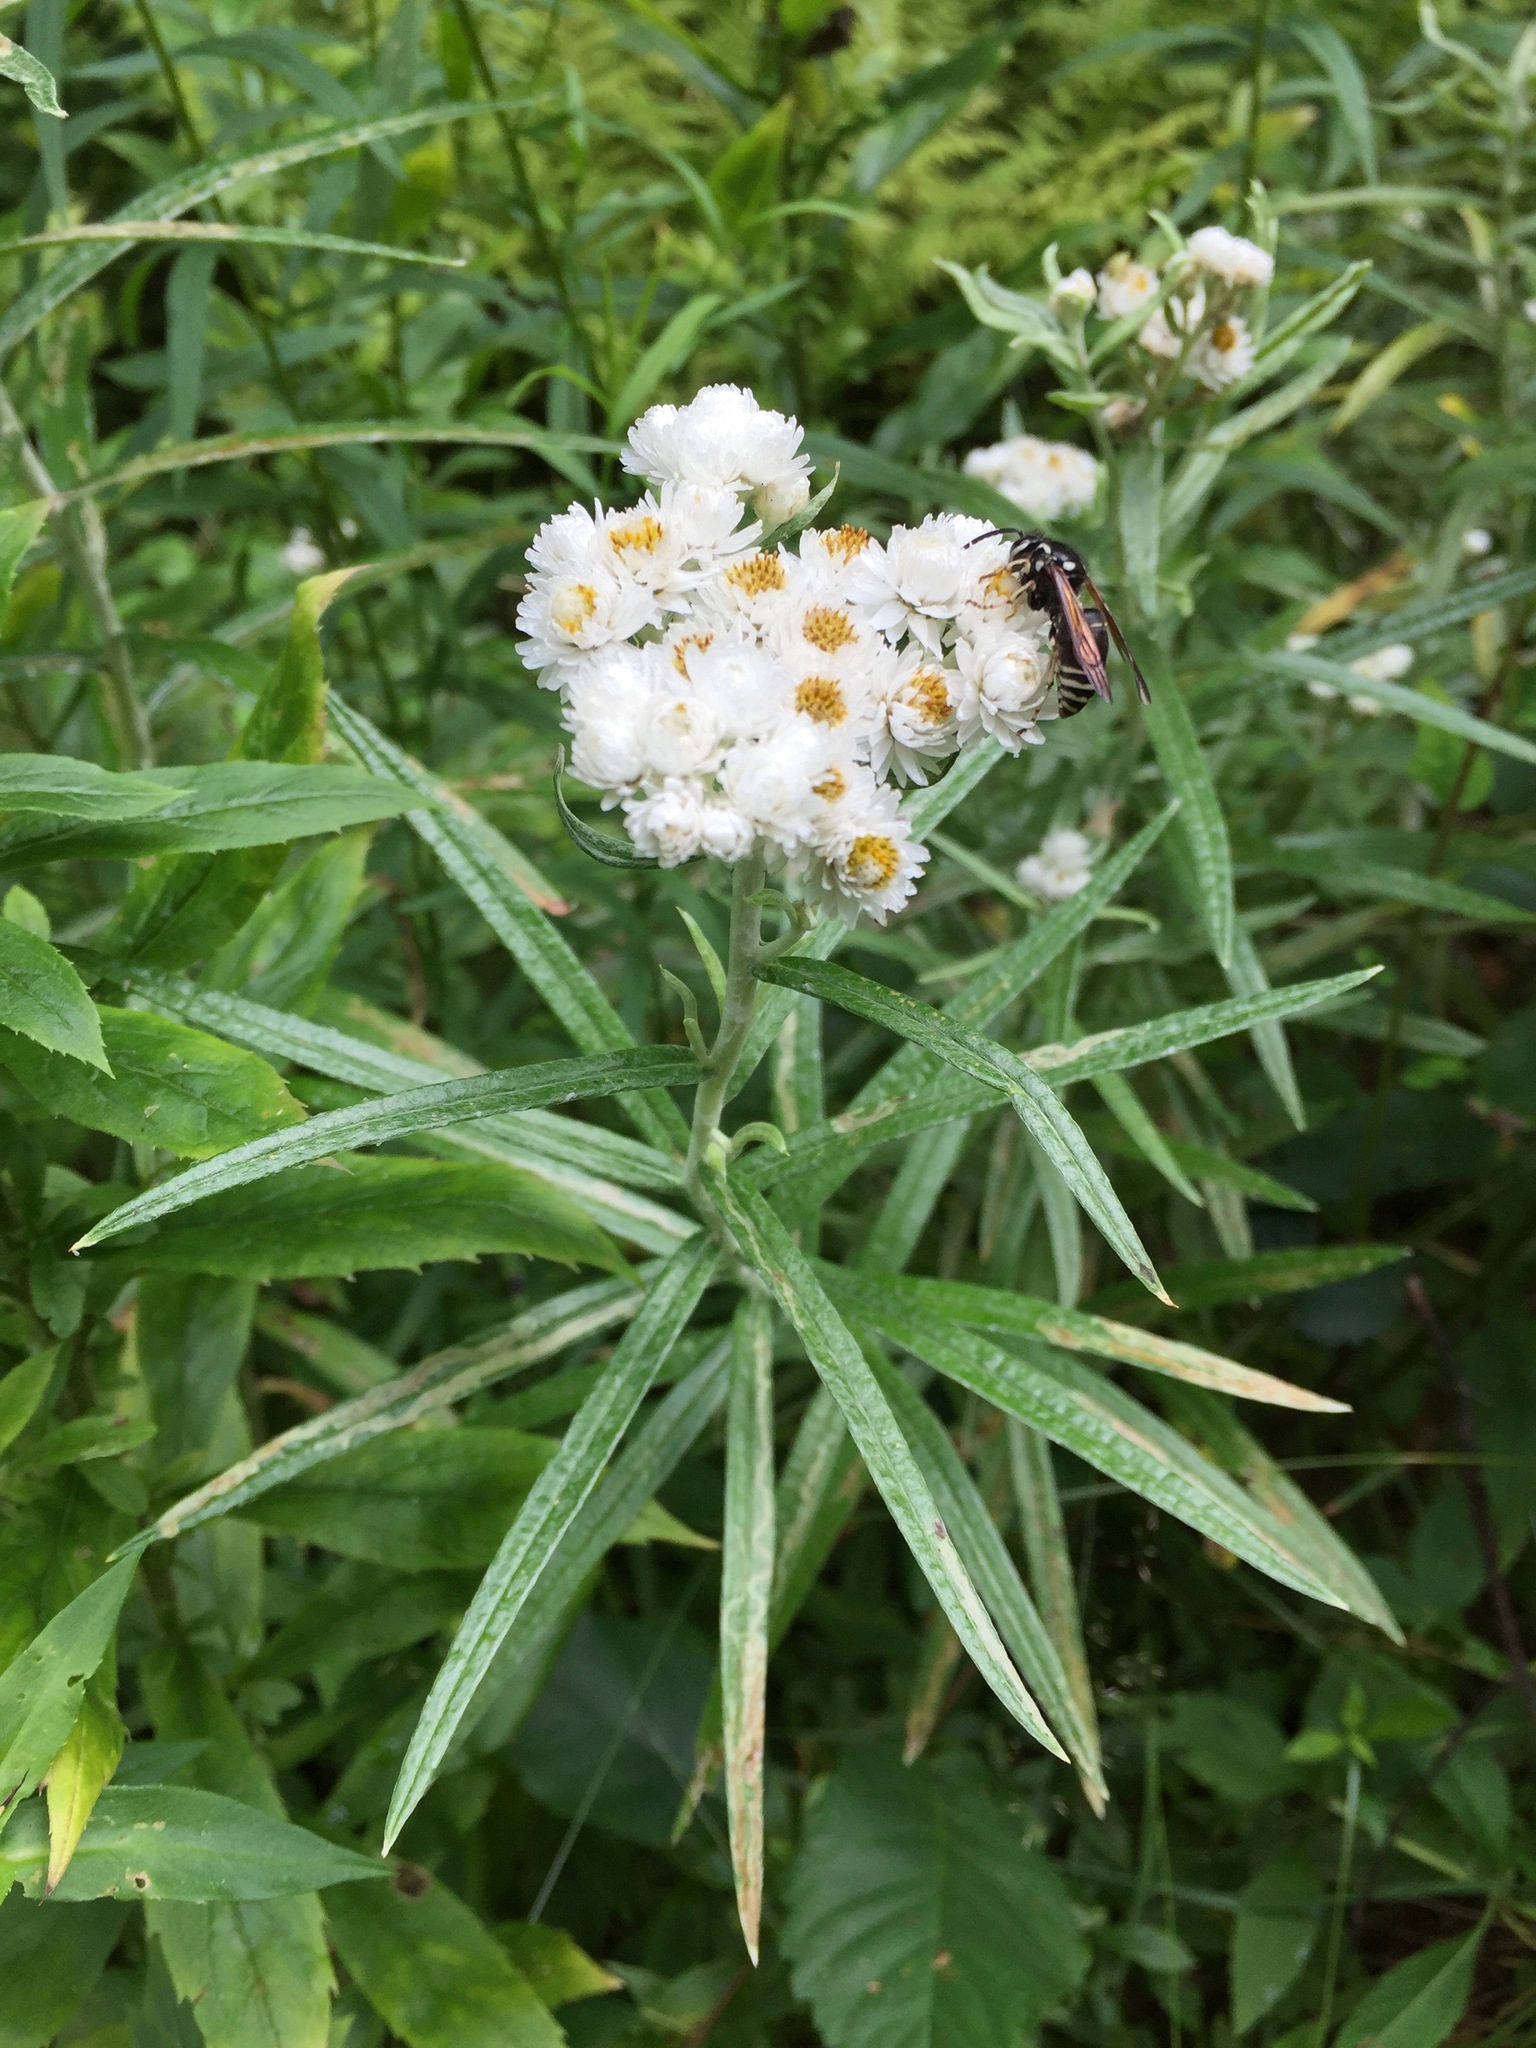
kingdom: Plantae
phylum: Tracheophyta
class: Magnoliopsida
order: Asterales
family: Asteraceae
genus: Anaphalis
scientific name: Anaphalis margaritacea
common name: Pearly everlasting
